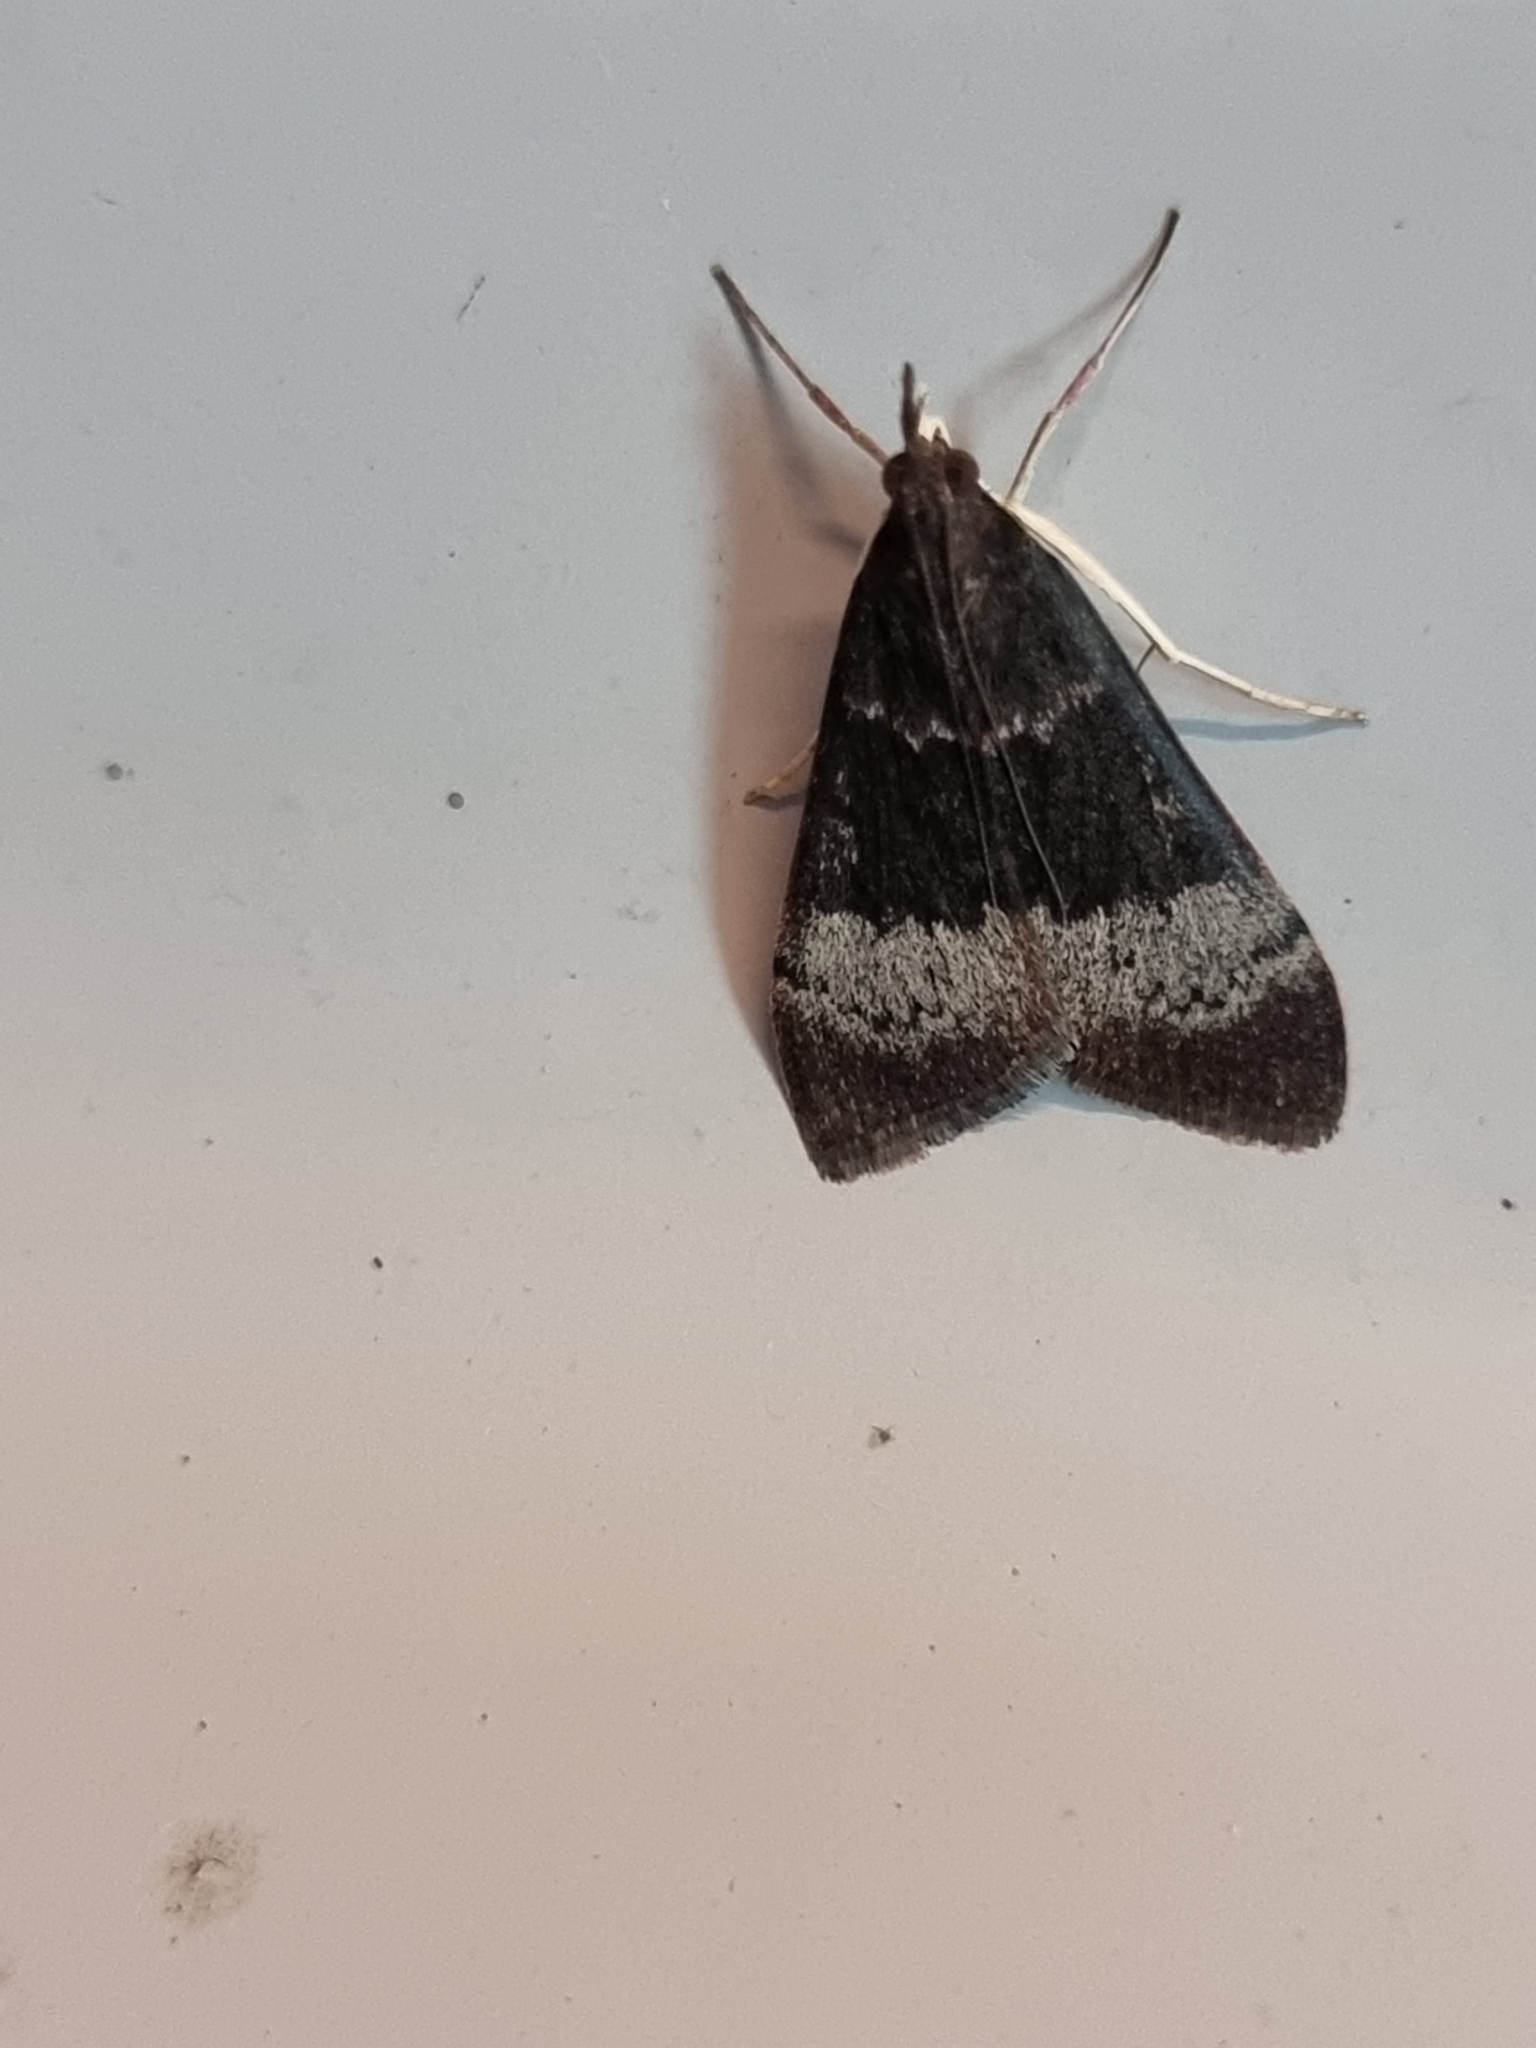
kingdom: Animalia
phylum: Arthropoda
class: Insecta
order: Lepidoptera
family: Crambidae
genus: Uresiphita
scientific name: Uresiphita ornithopteralis
